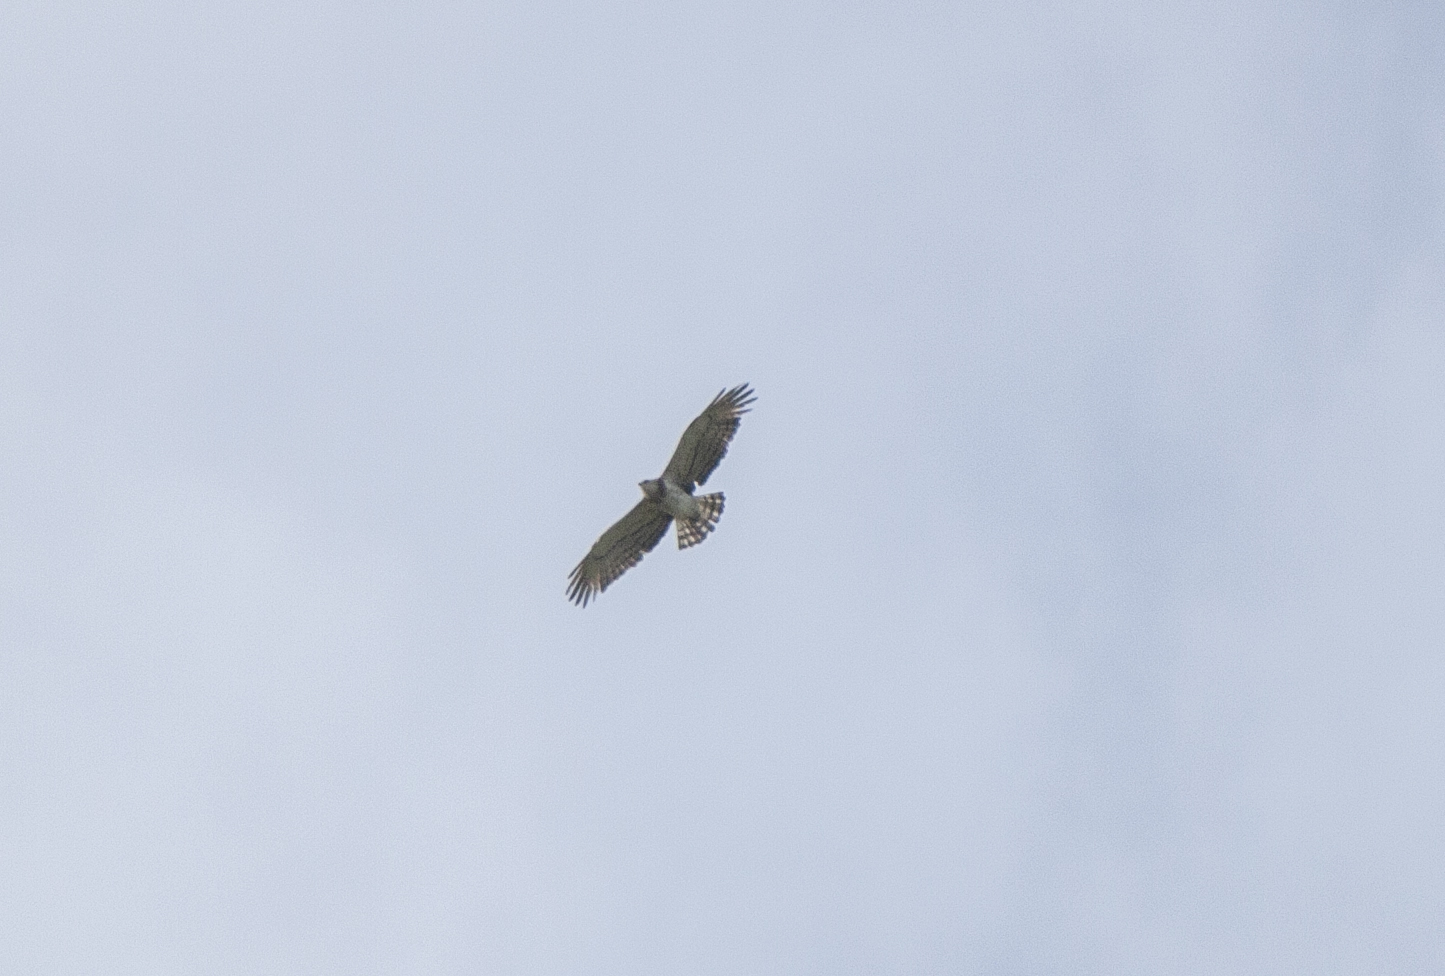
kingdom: Animalia
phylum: Chordata
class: Aves
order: Accipitriformes
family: Accipitridae
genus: Circaetus
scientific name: Circaetus gallicus
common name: Short-toed snake eagle
